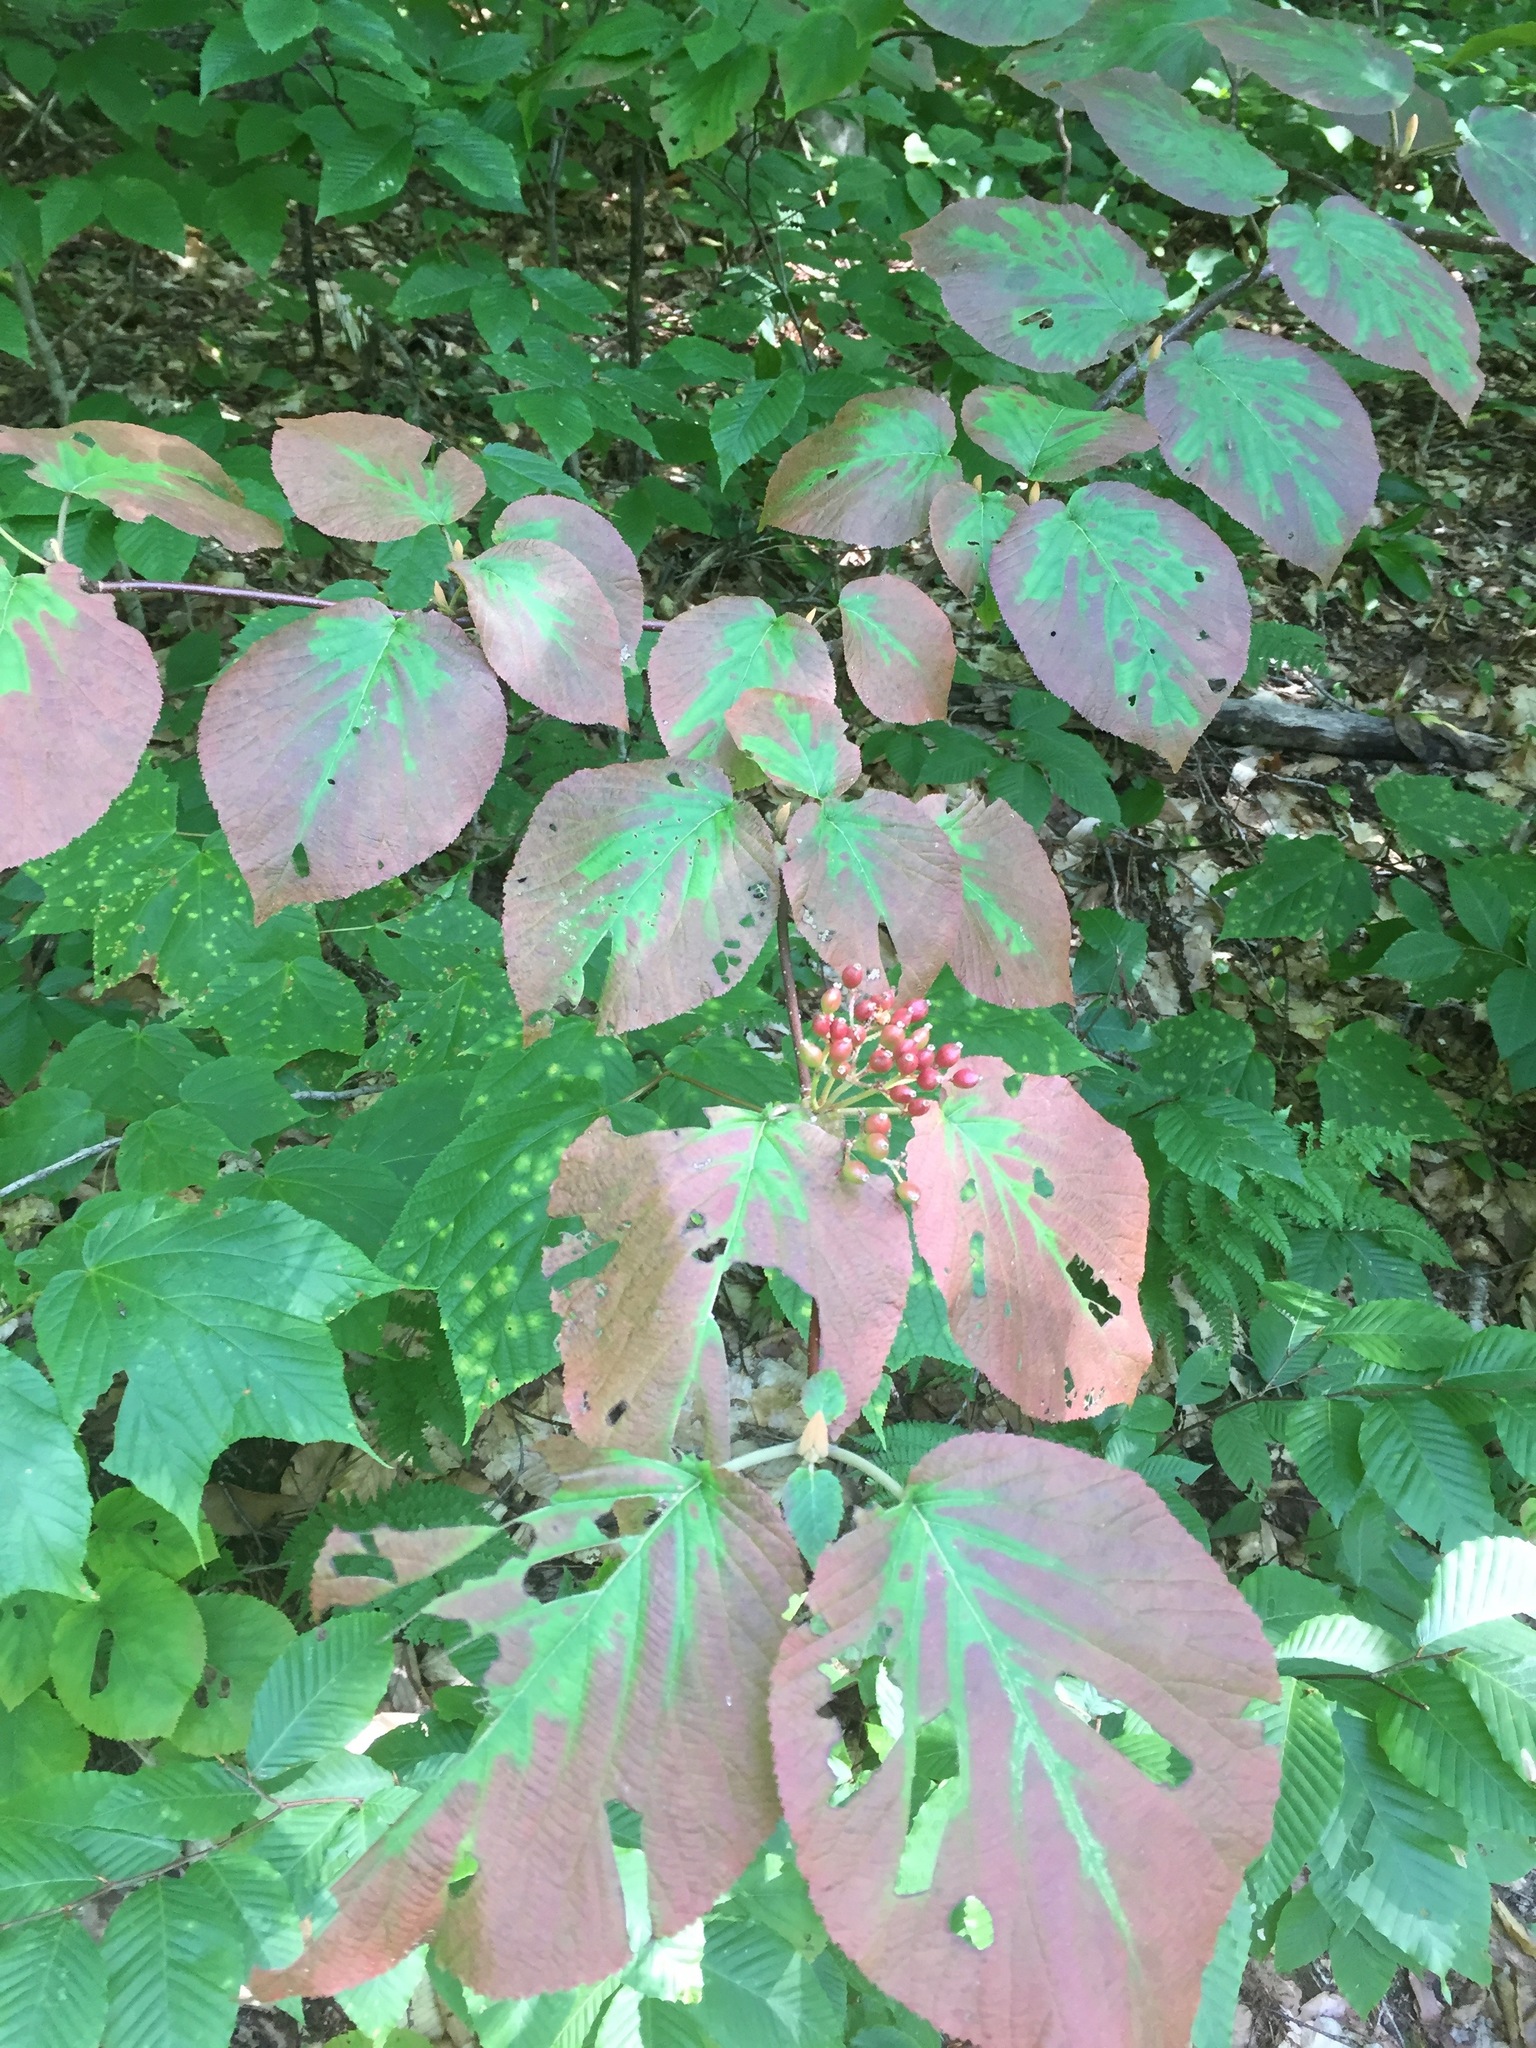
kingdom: Plantae
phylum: Tracheophyta
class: Magnoliopsida
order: Dipsacales
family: Viburnaceae
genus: Viburnum
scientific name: Viburnum lantanoides
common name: Hobblebush
